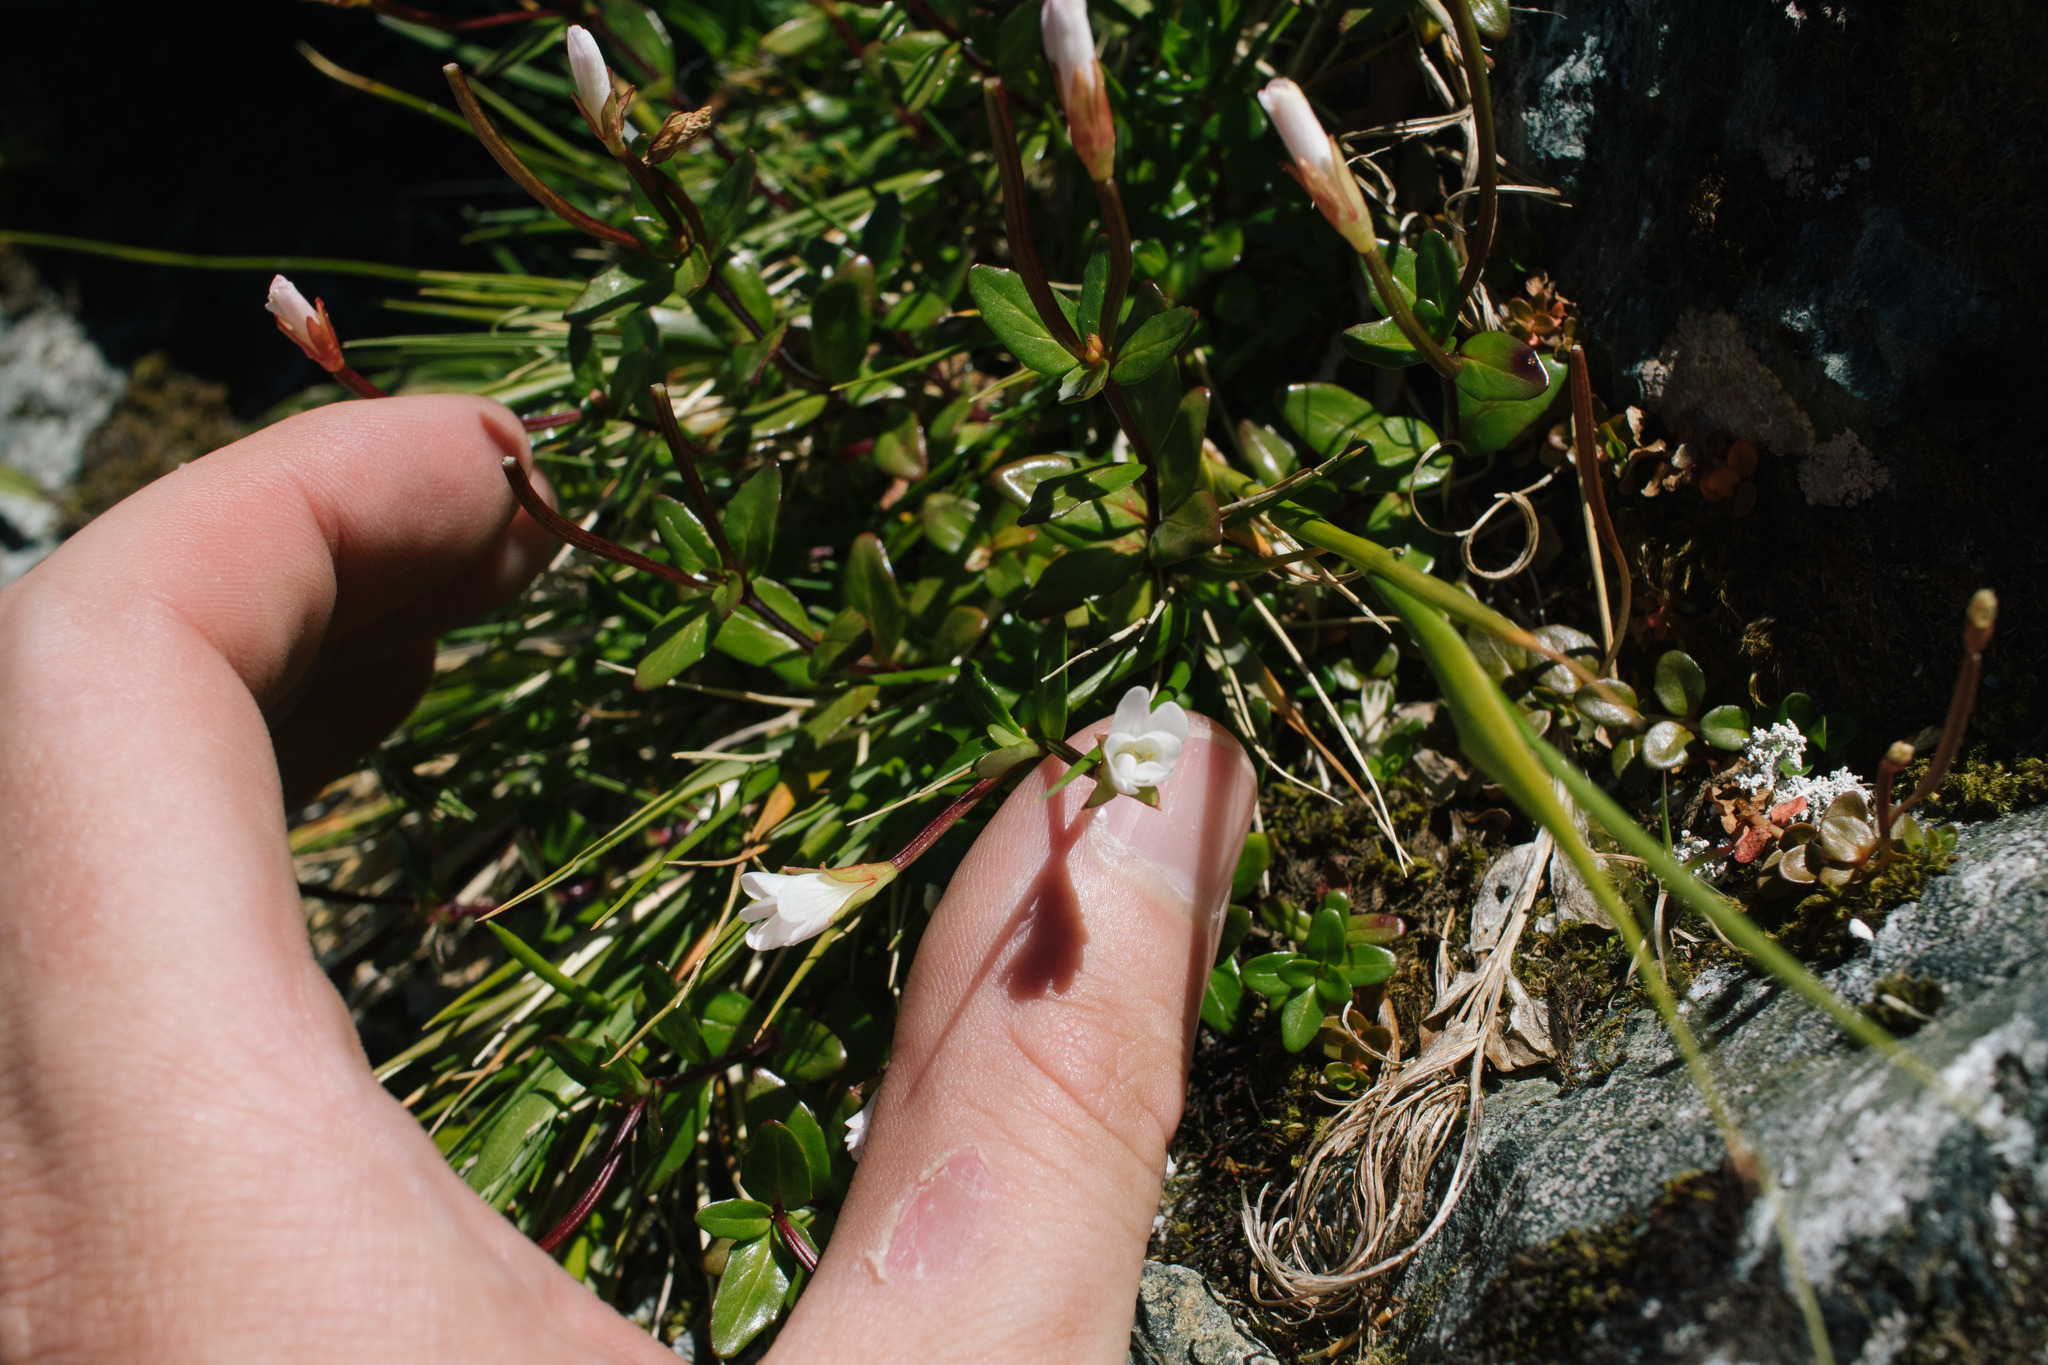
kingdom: Plantae
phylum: Tracheophyta
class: Magnoliopsida
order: Myrtales
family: Onagraceae
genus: Epilobium
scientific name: Epilobium glabellum
